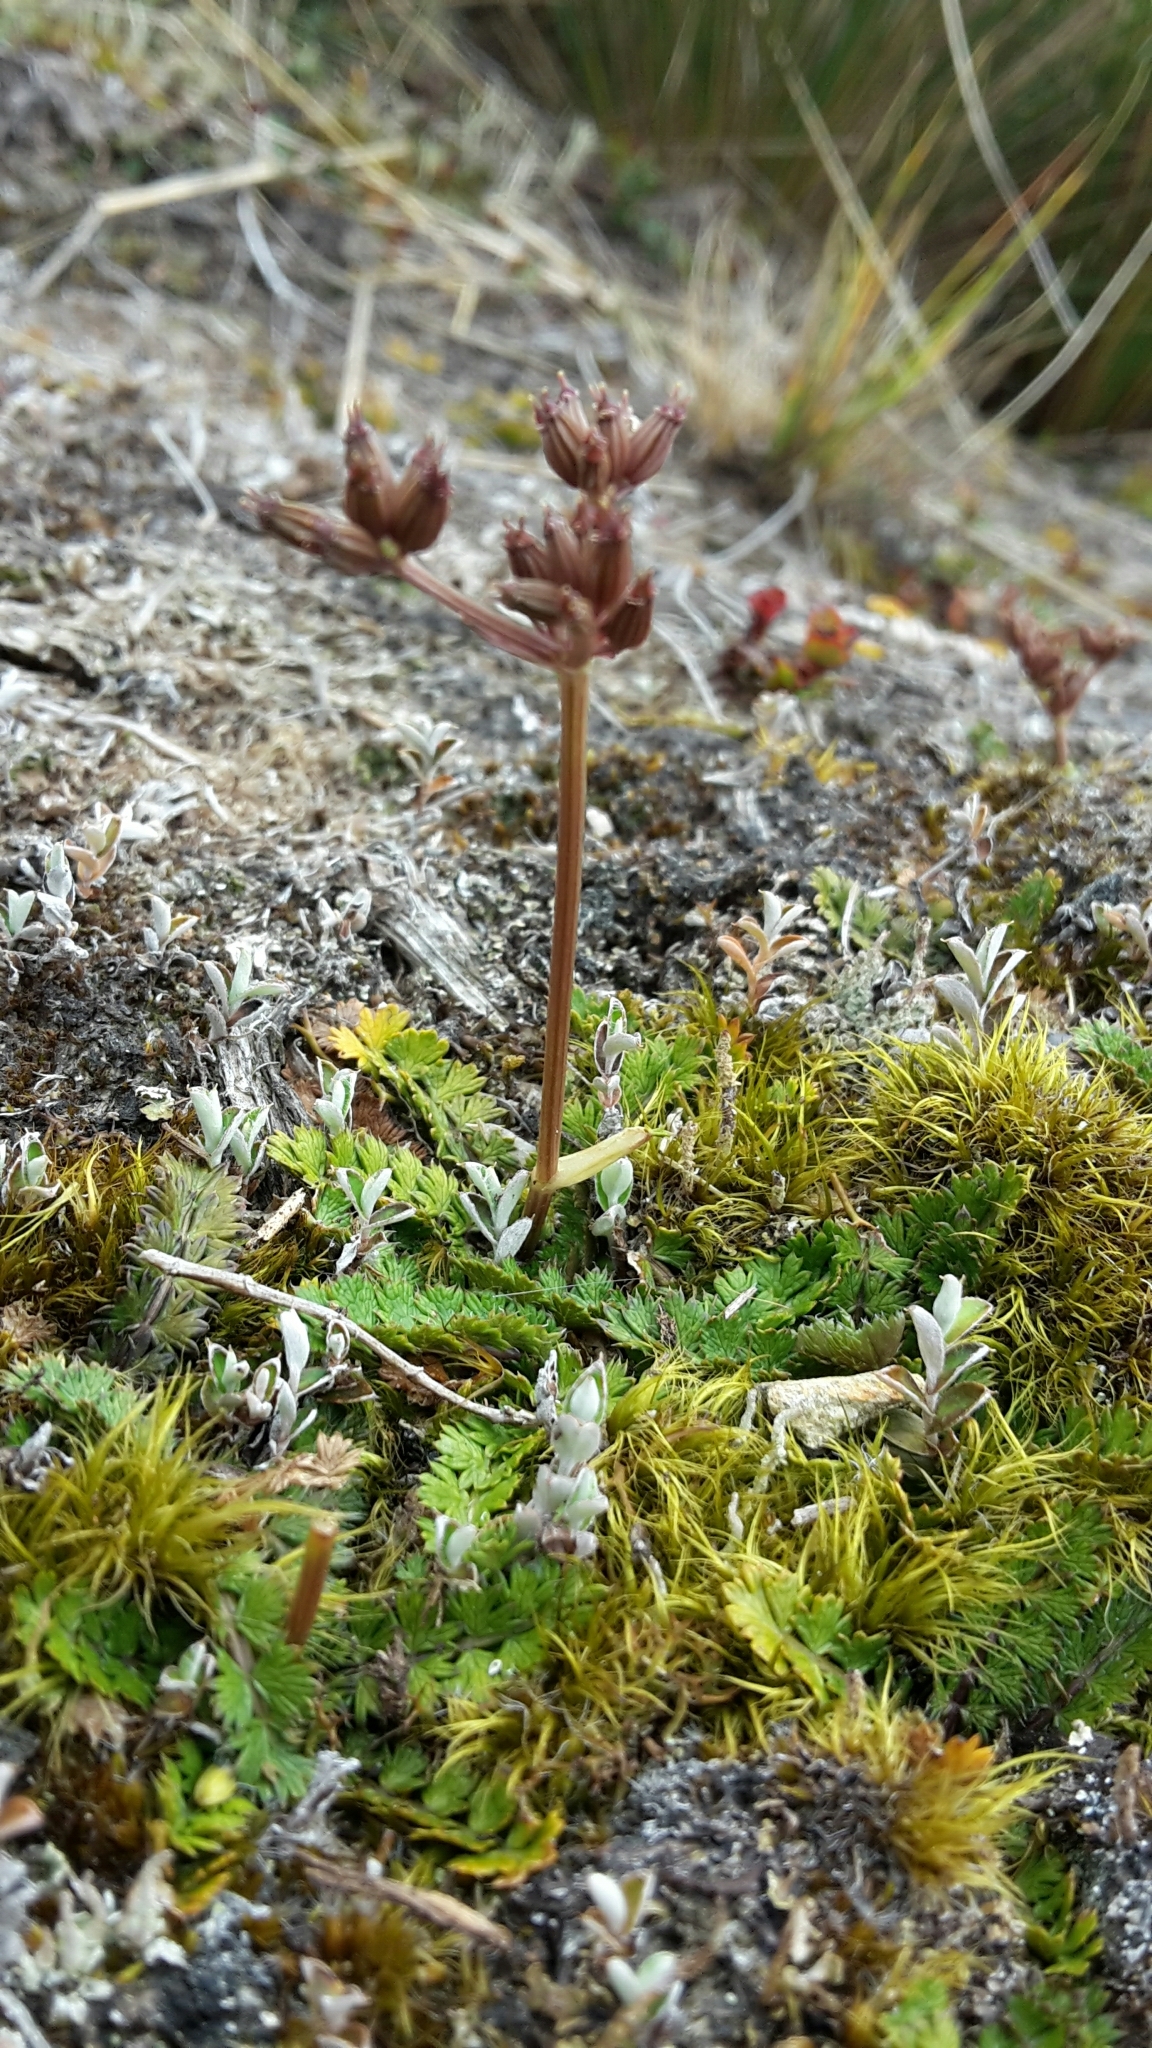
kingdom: Plantae
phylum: Tracheophyta
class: Magnoliopsida
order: Apiales
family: Apiaceae
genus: Anisotome
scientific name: Anisotome aromatica
